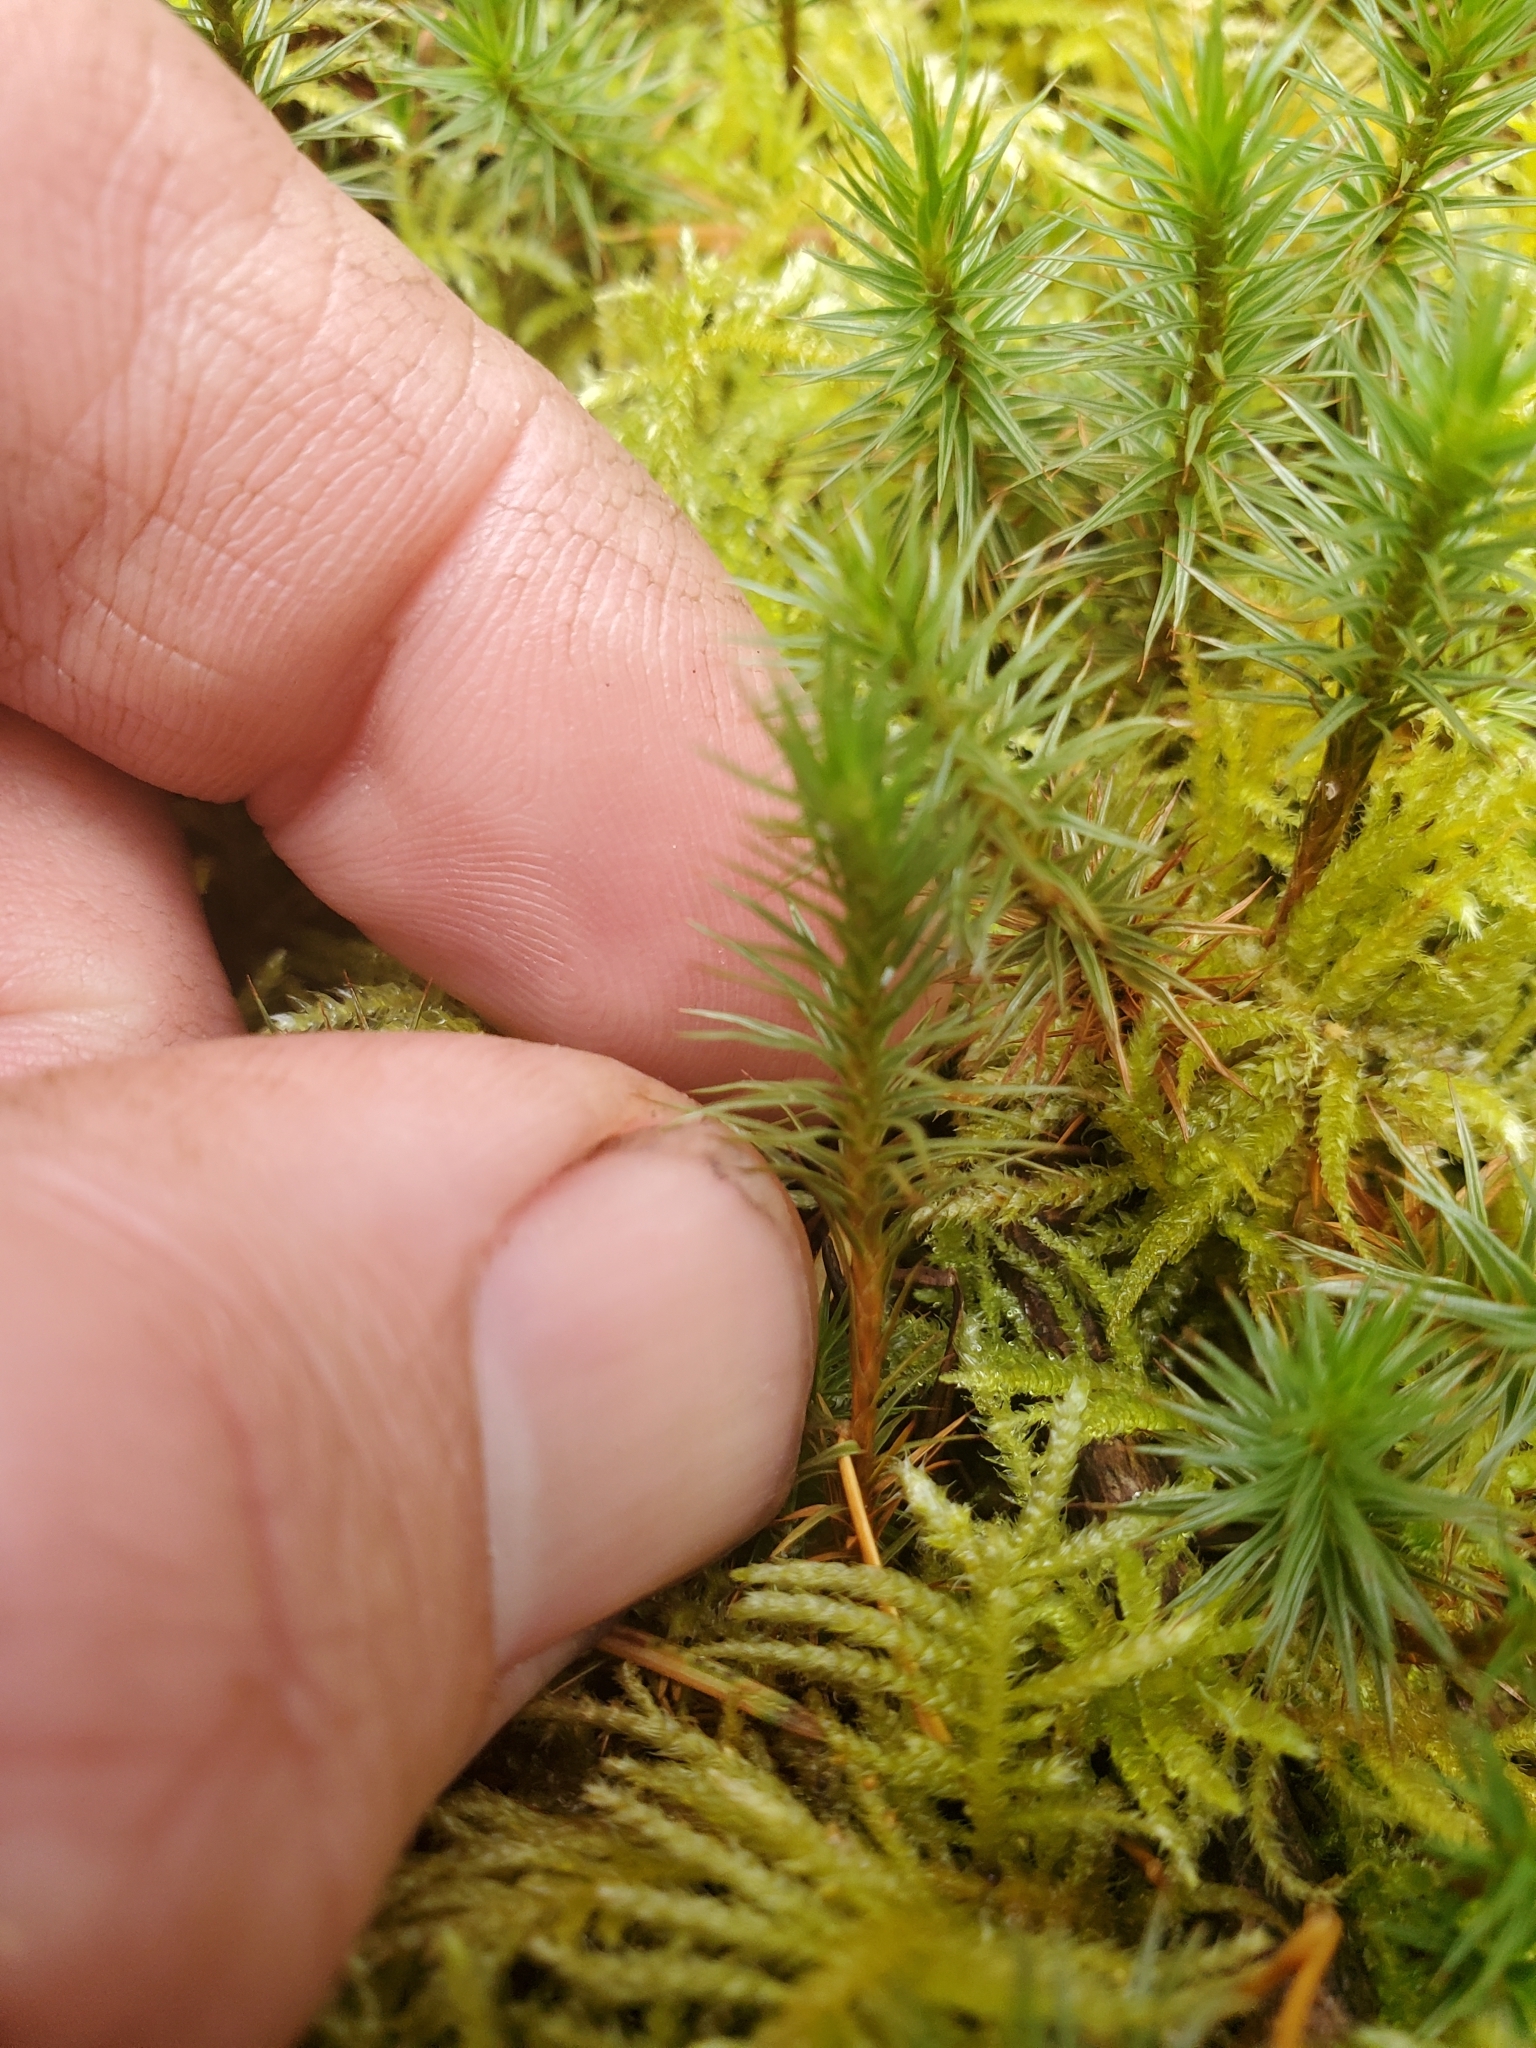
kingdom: Plantae
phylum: Bryophyta
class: Polytrichopsida
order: Polytrichales
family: Polytrichaceae
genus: Polytrichum
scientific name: Polytrichum juniperinum
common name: Juniper haircap moss
